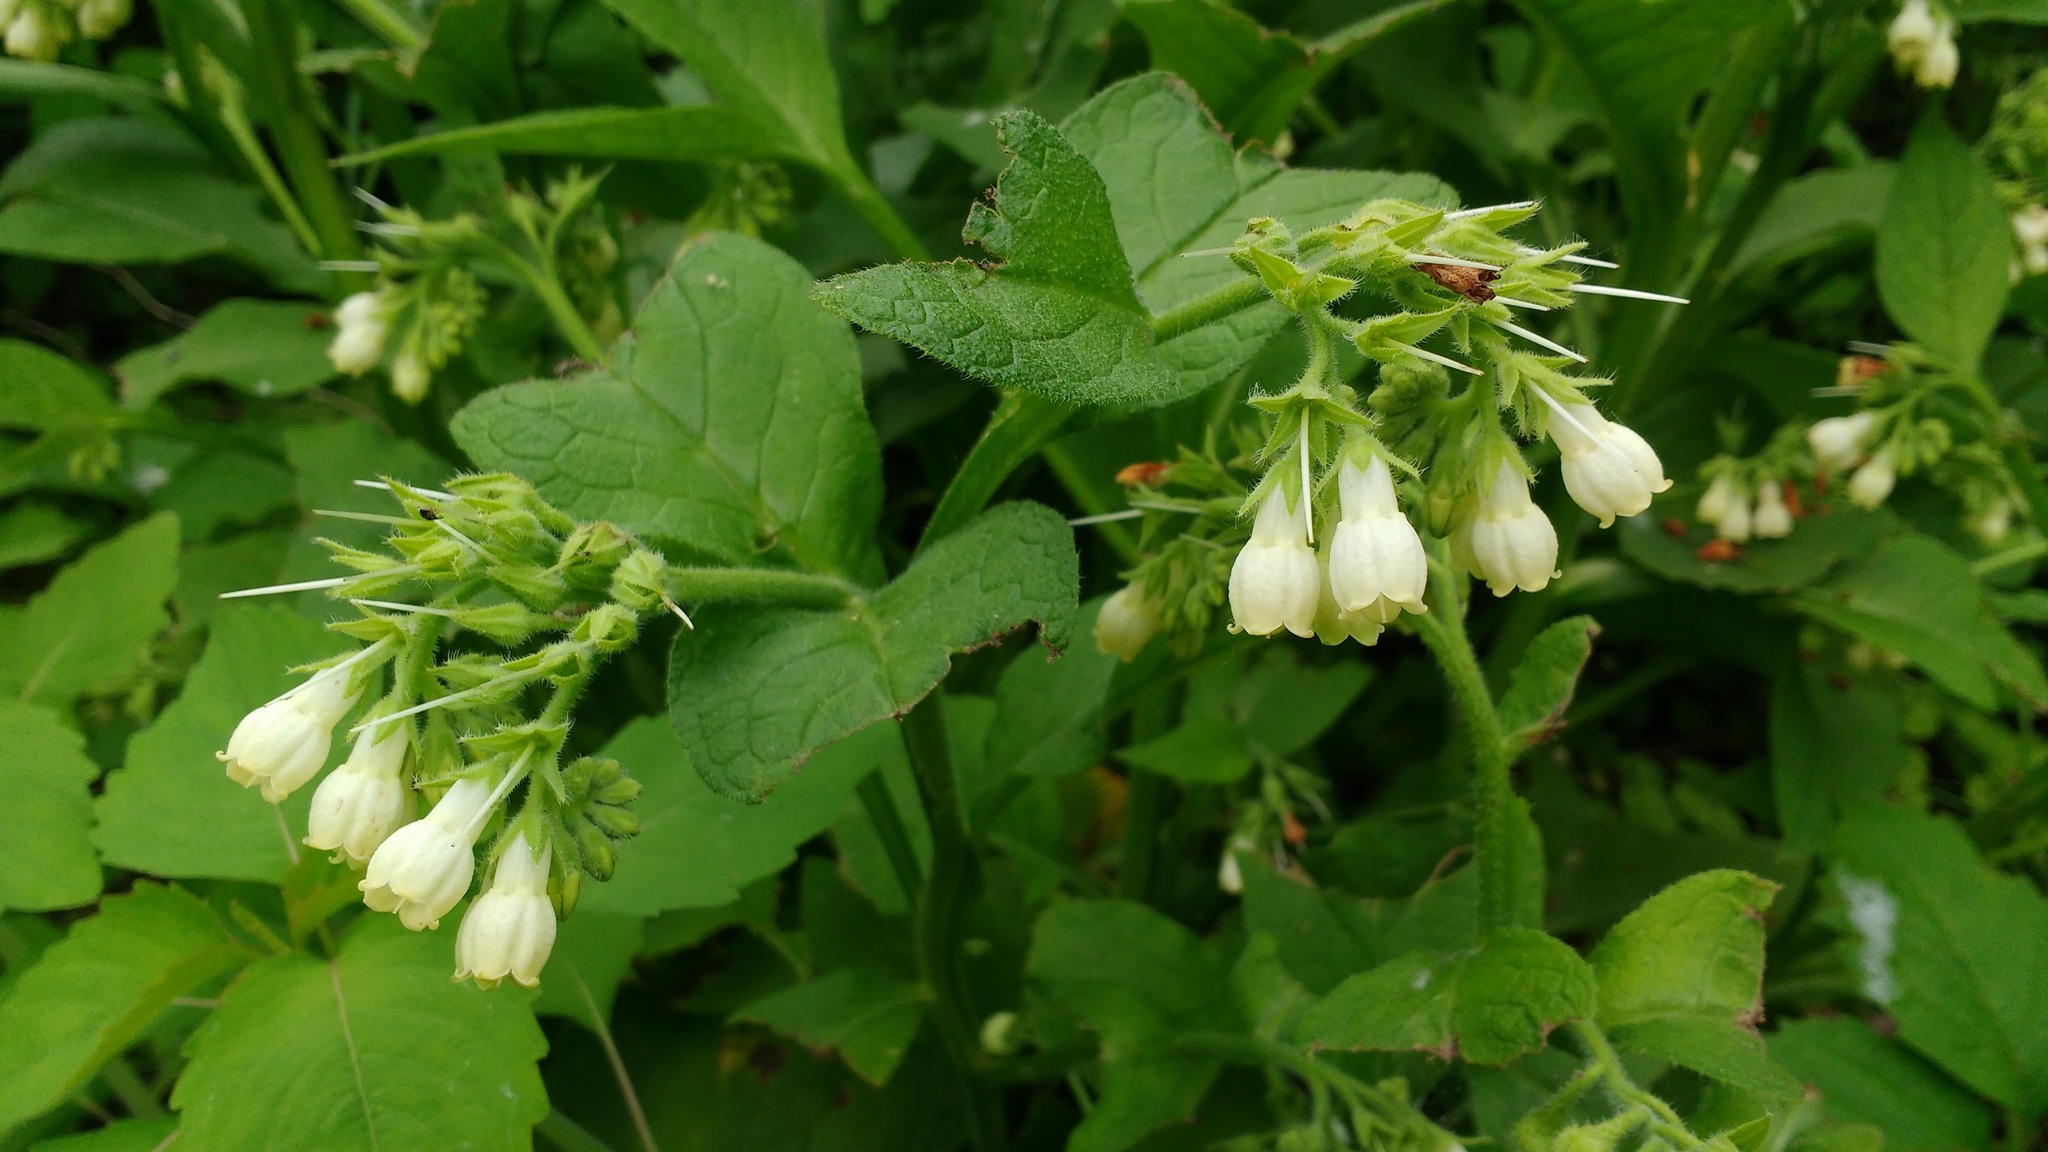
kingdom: Plantae
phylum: Tracheophyta
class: Magnoliopsida
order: Boraginales
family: Boraginaceae
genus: Symphytum
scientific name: Symphytum officinale
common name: Common comfrey
